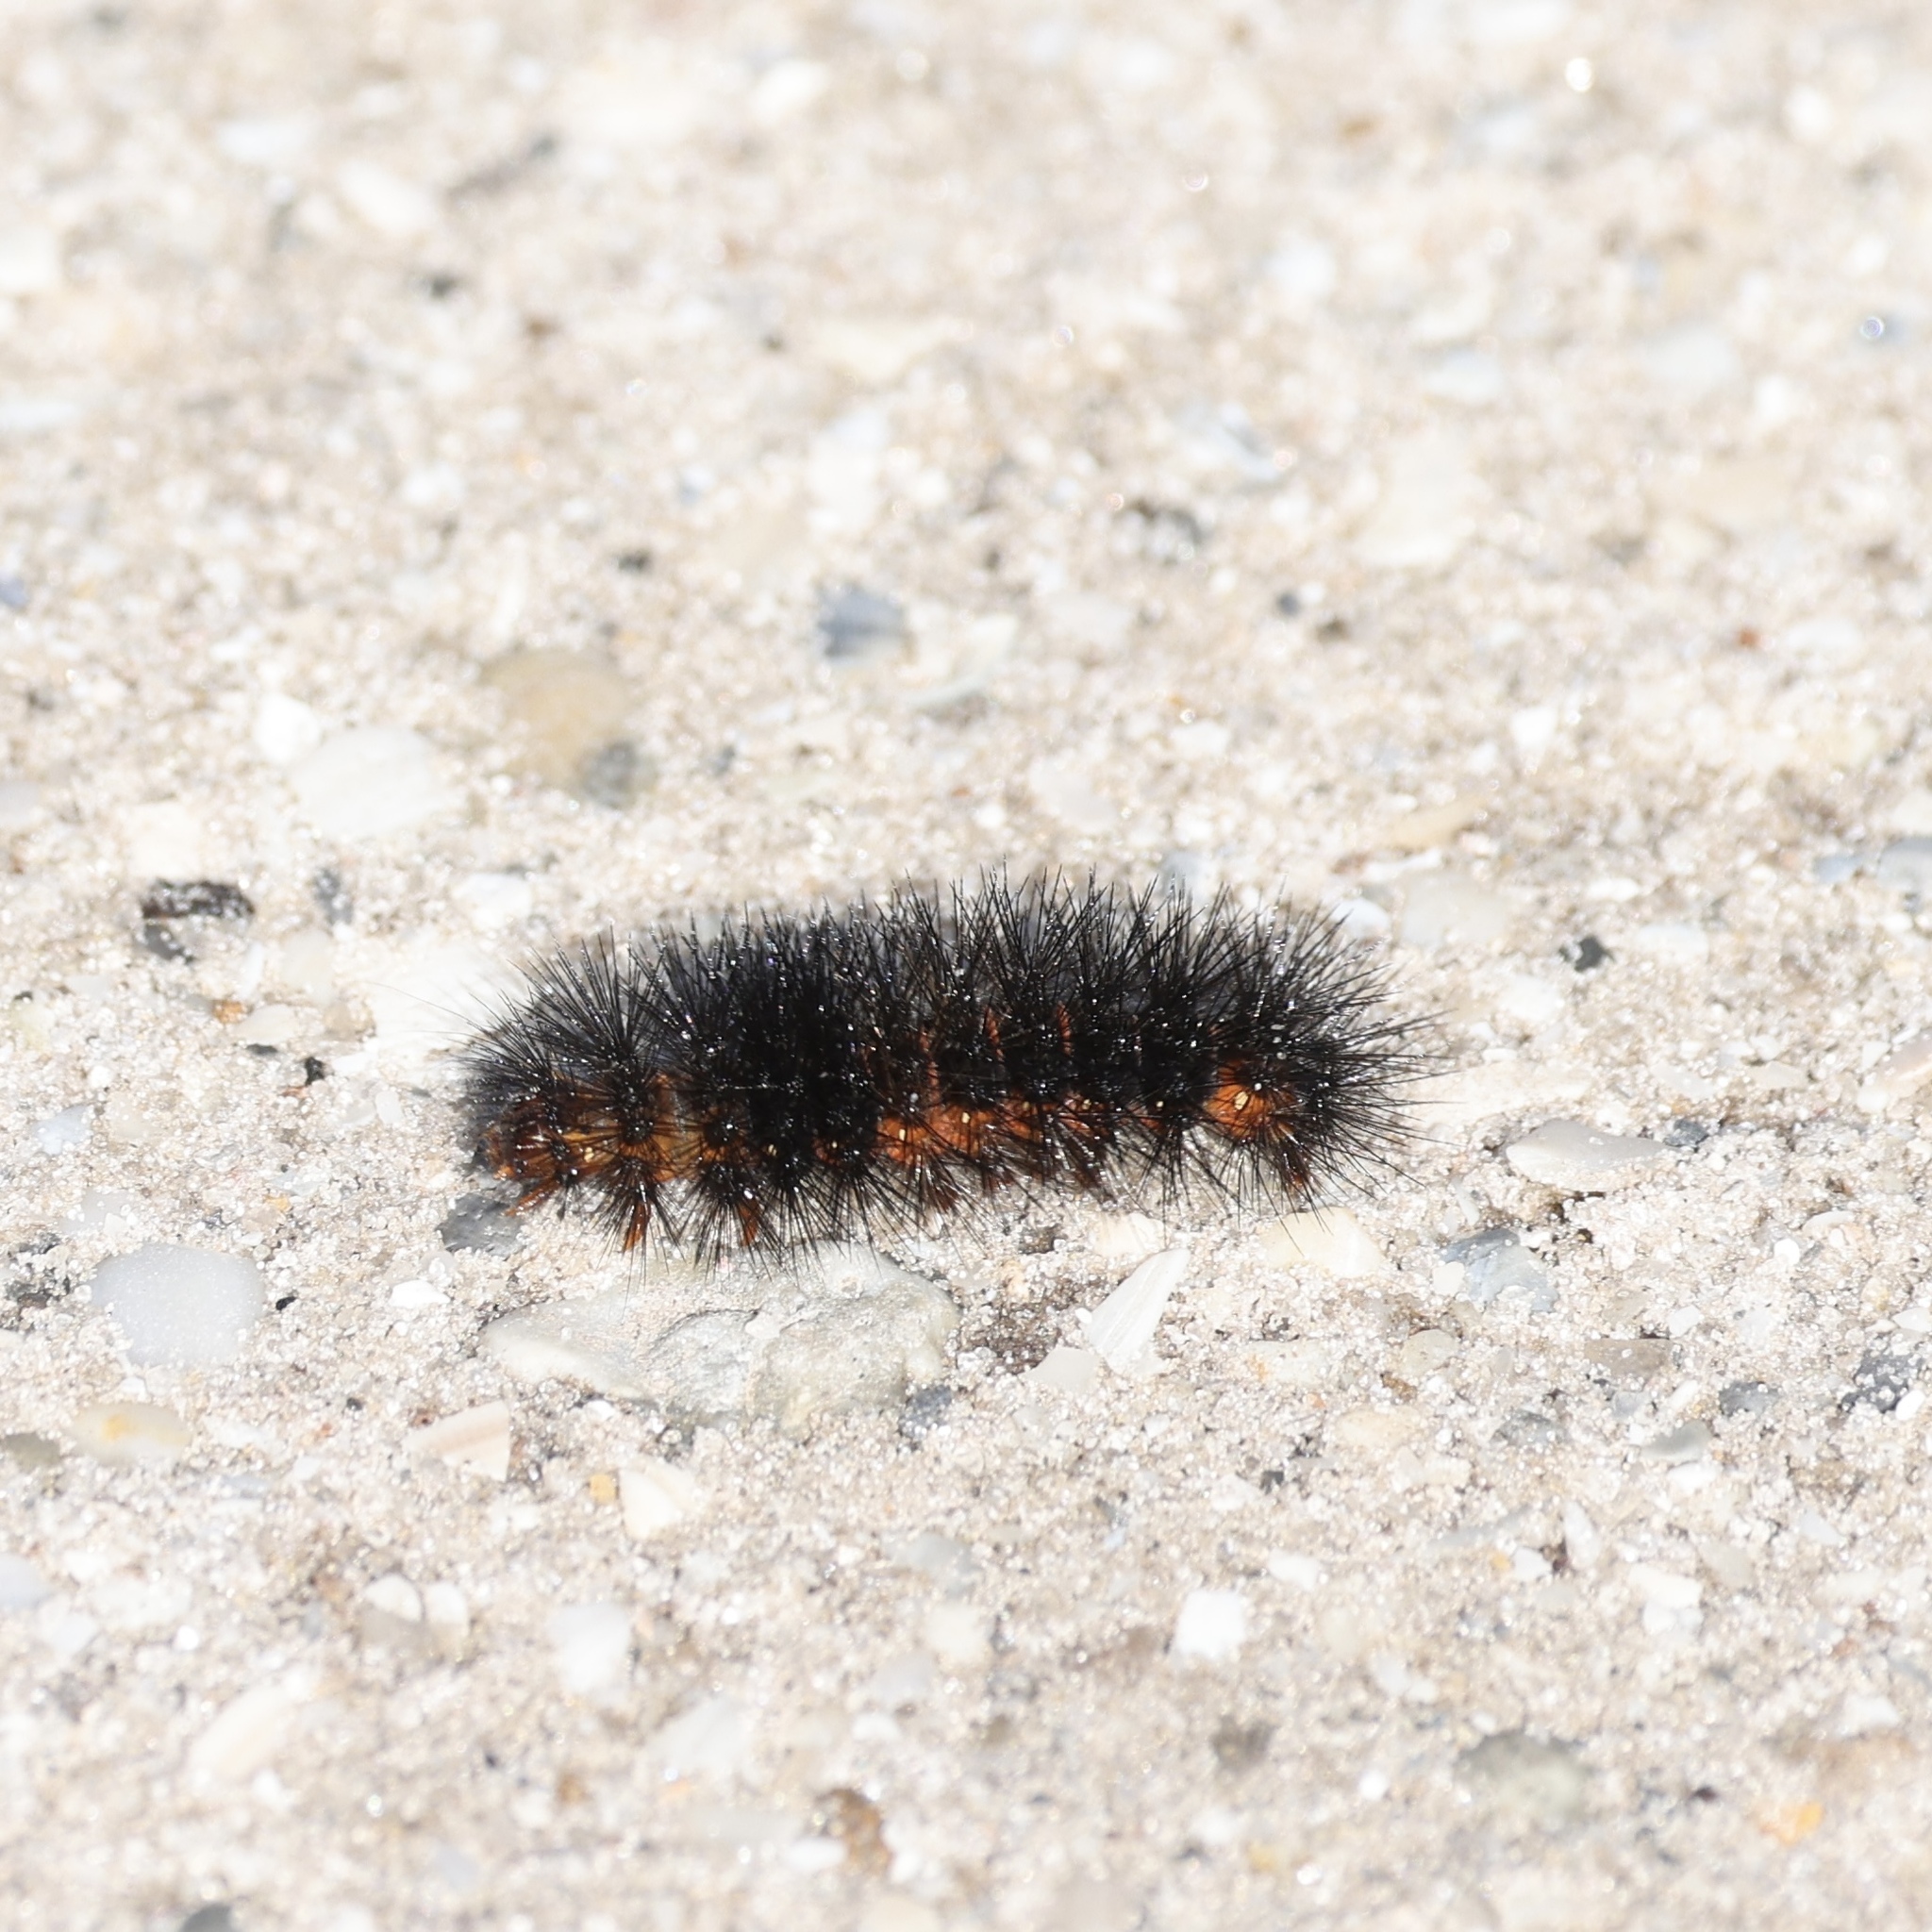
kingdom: Animalia
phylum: Arthropoda
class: Insecta
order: Lepidoptera
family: Erebidae
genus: Hypercompe
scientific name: Hypercompe scribonia
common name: Giant leopard moth
